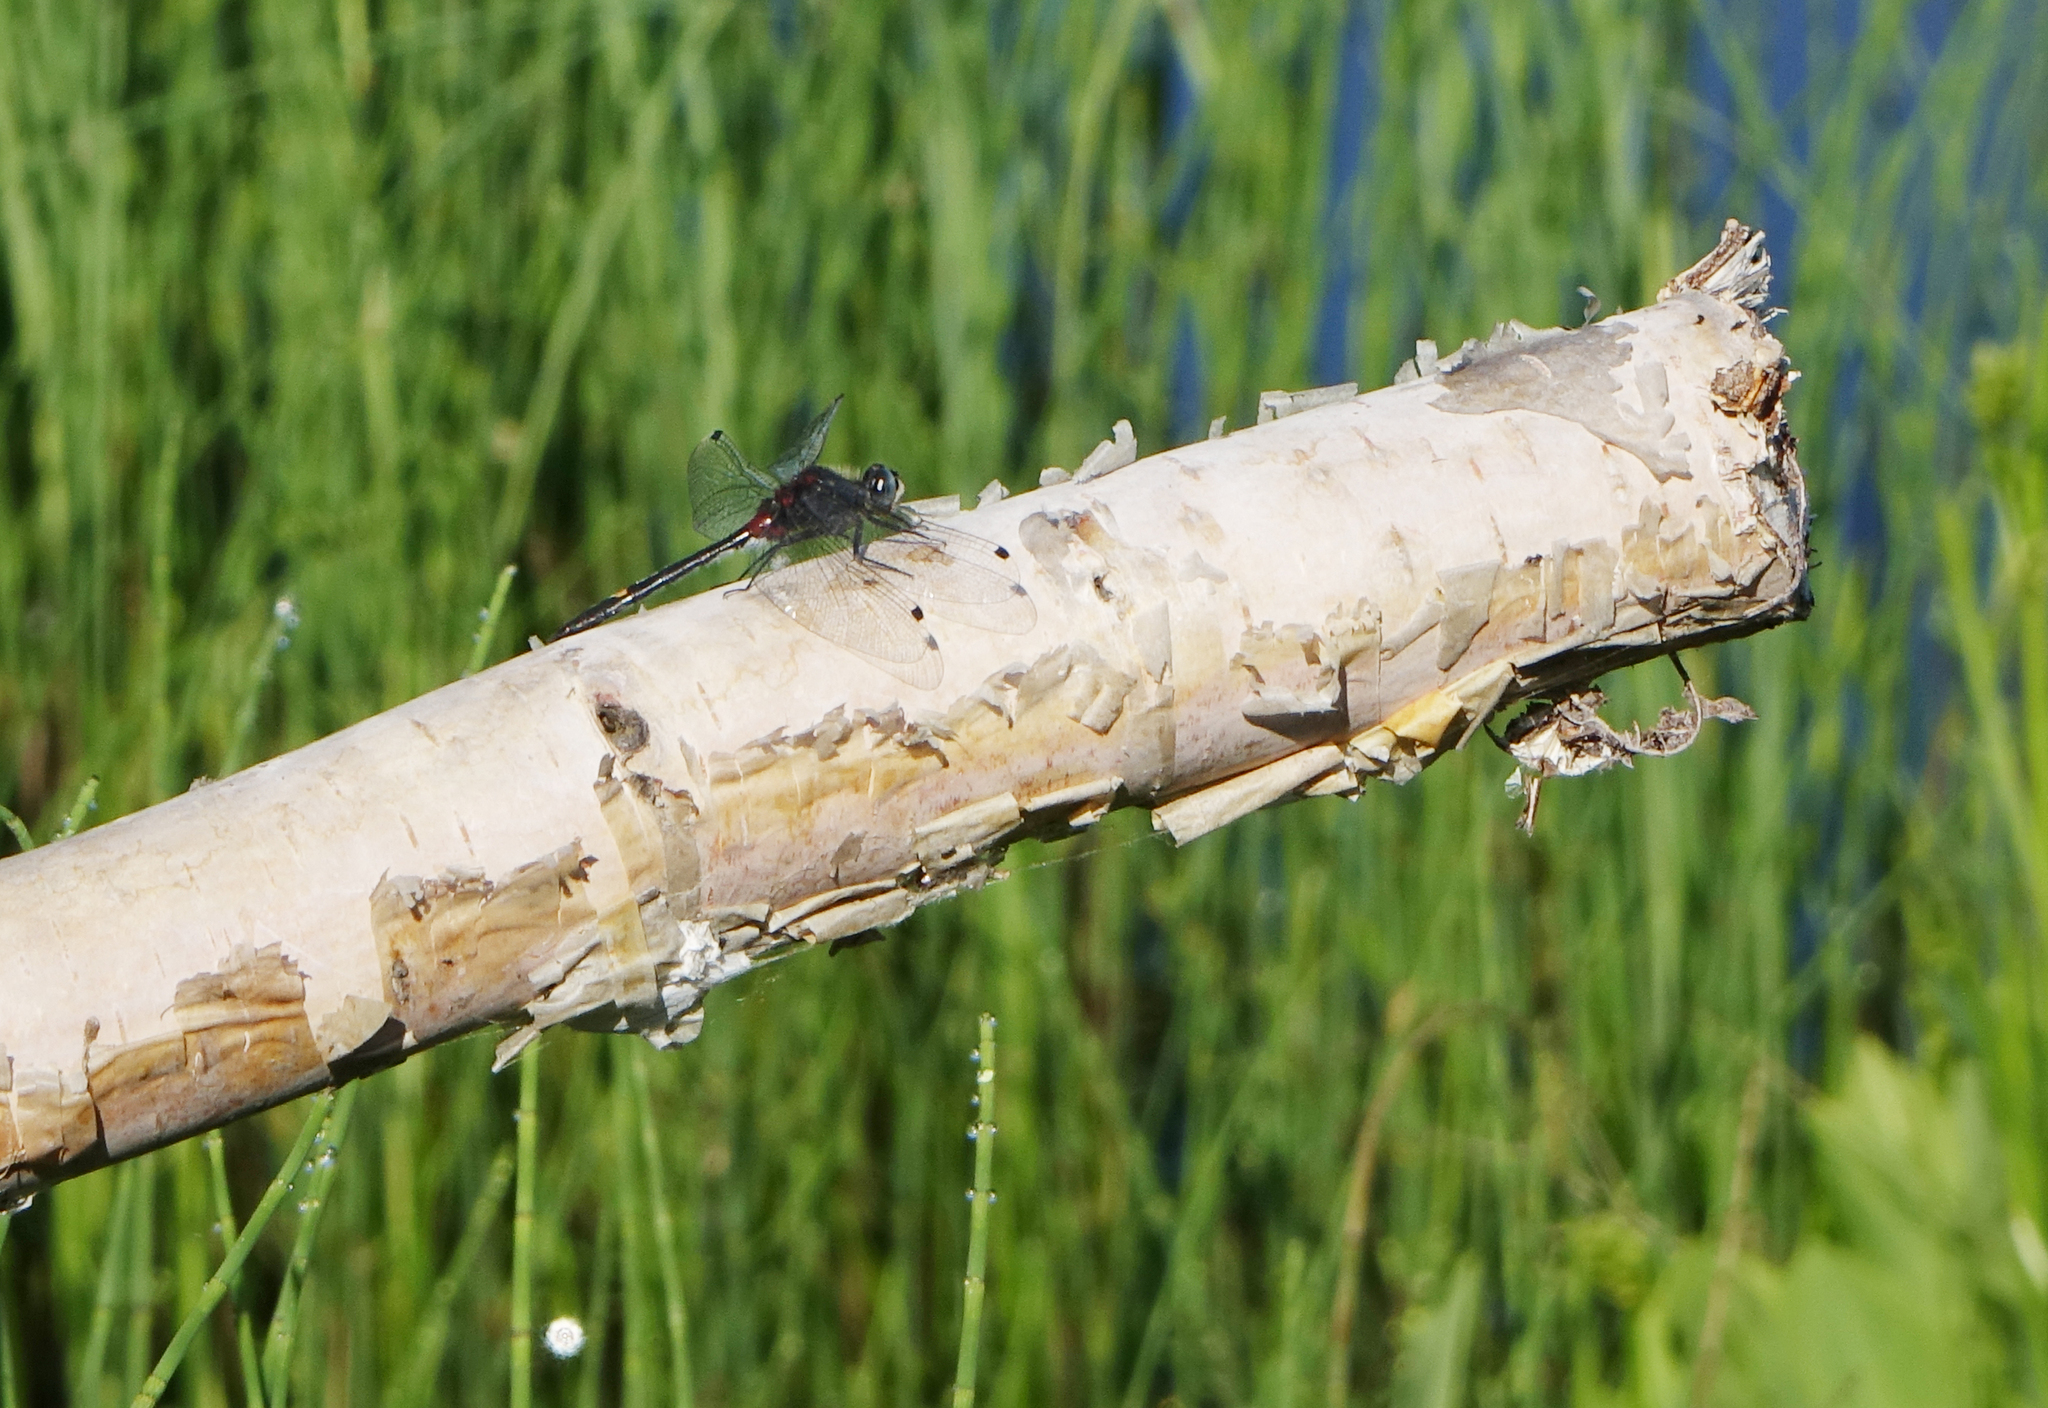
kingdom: Animalia
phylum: Arthropoda
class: Insecta
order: Odonata
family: Libellulidae
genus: Leucorrhinia
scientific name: Leucorrhinia orientalis
